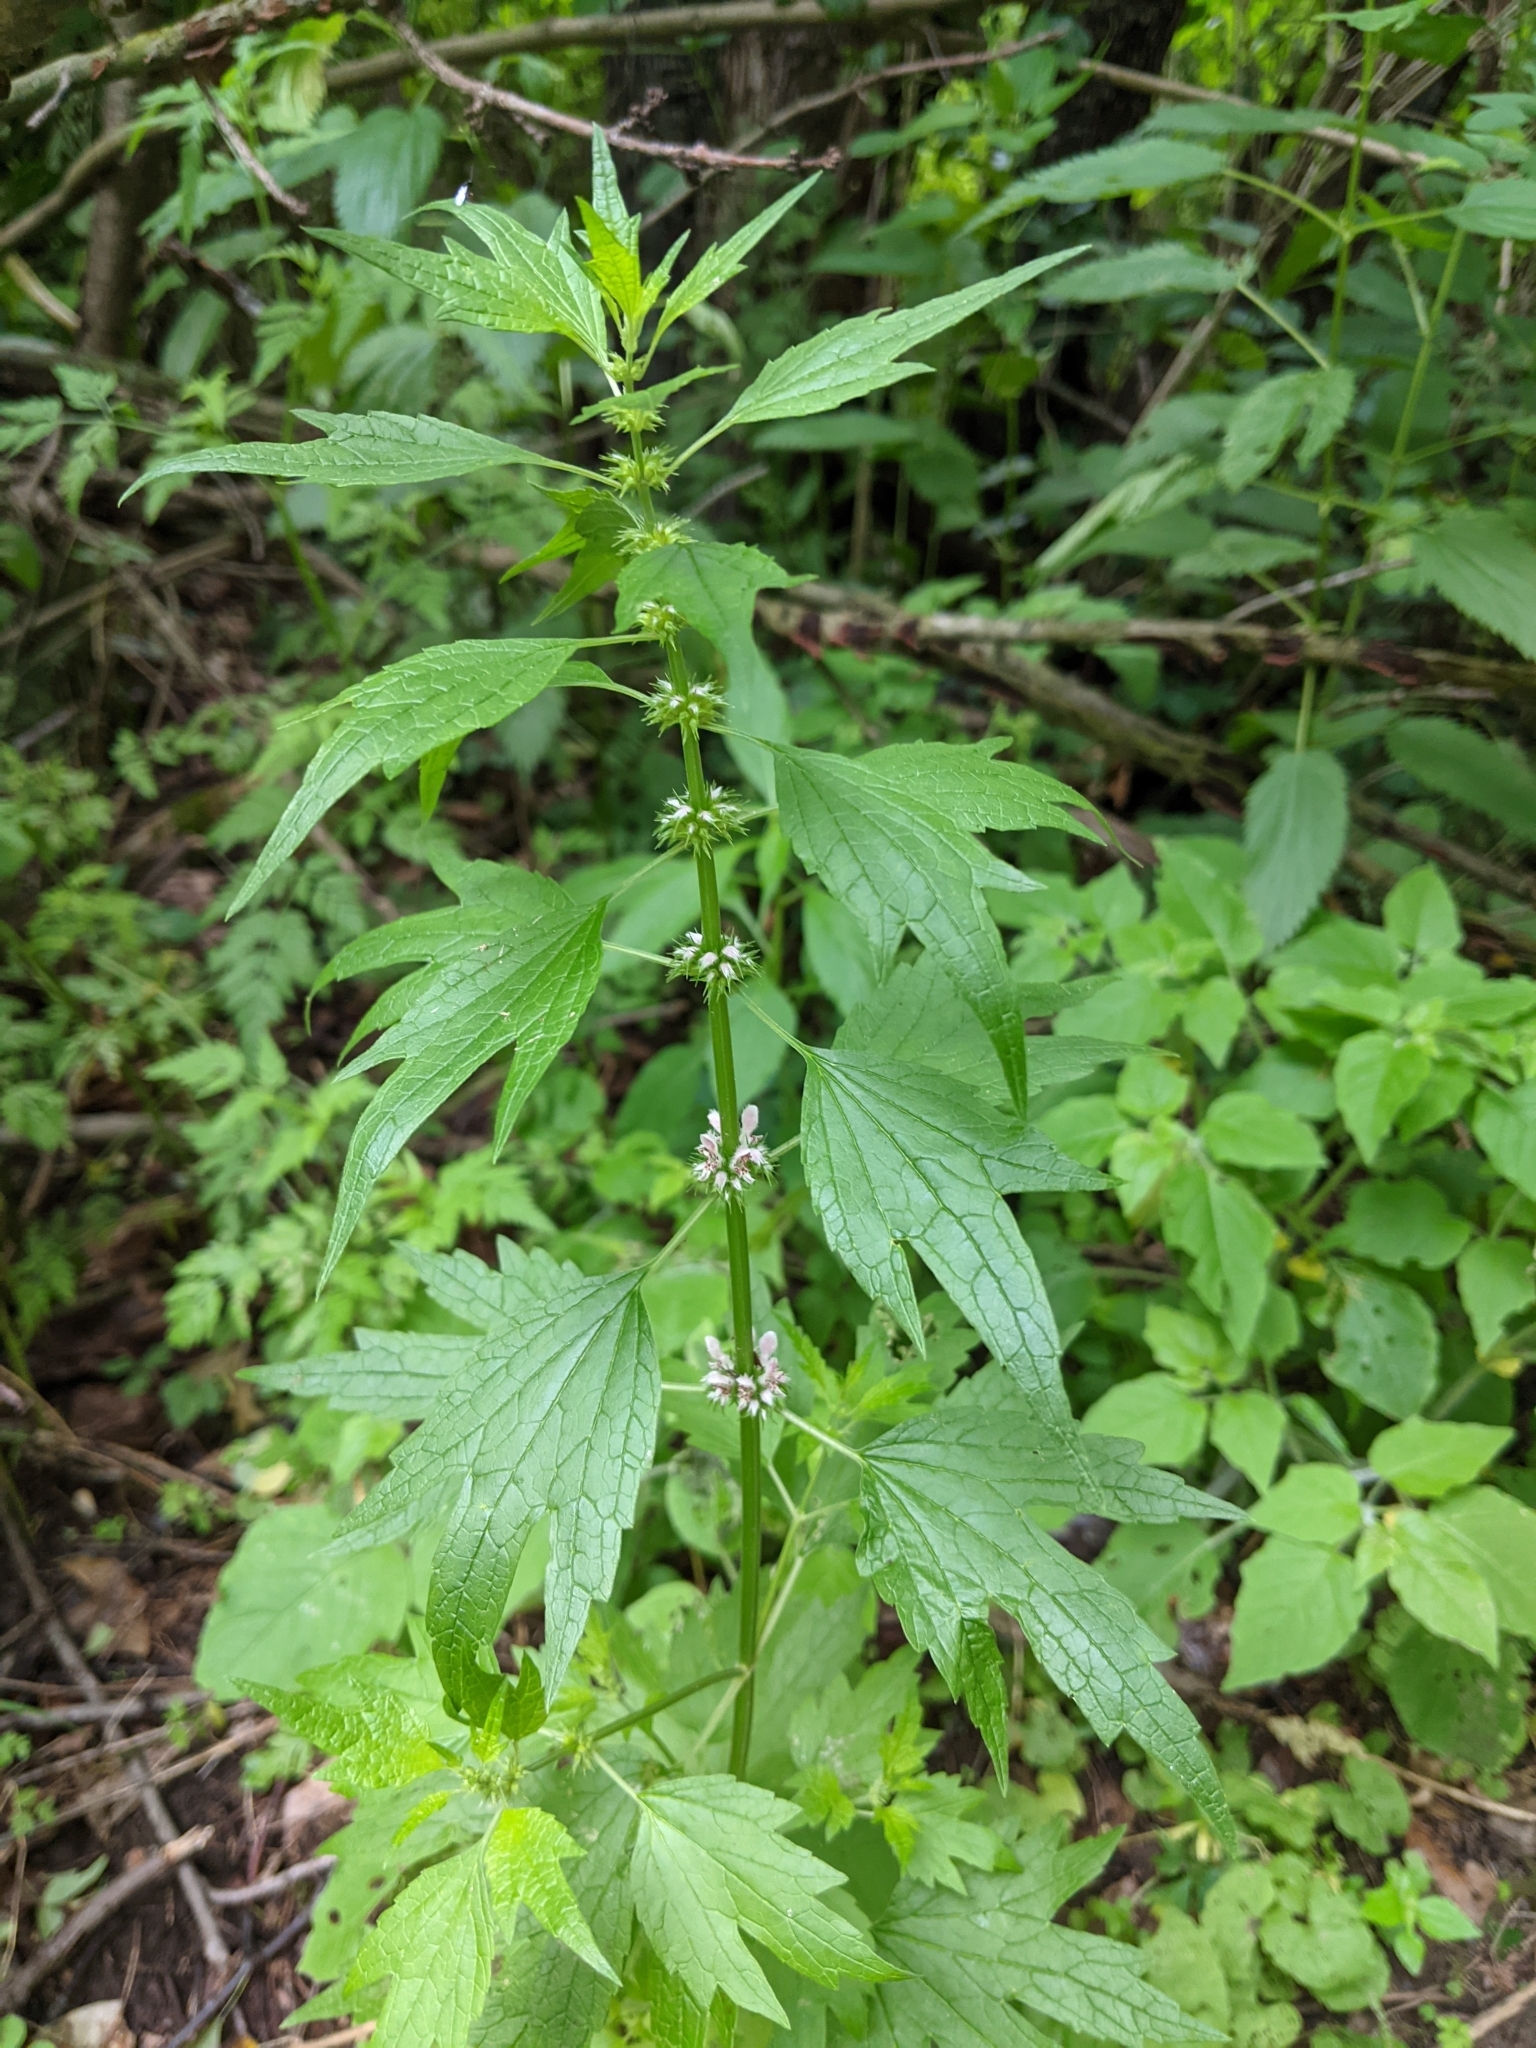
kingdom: Plantae
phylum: Tracheophyta
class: Magnoliopsida
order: Lamiales
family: Lamiaceae
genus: Leonurus
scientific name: Leonurus cardiaca
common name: Motherwort
